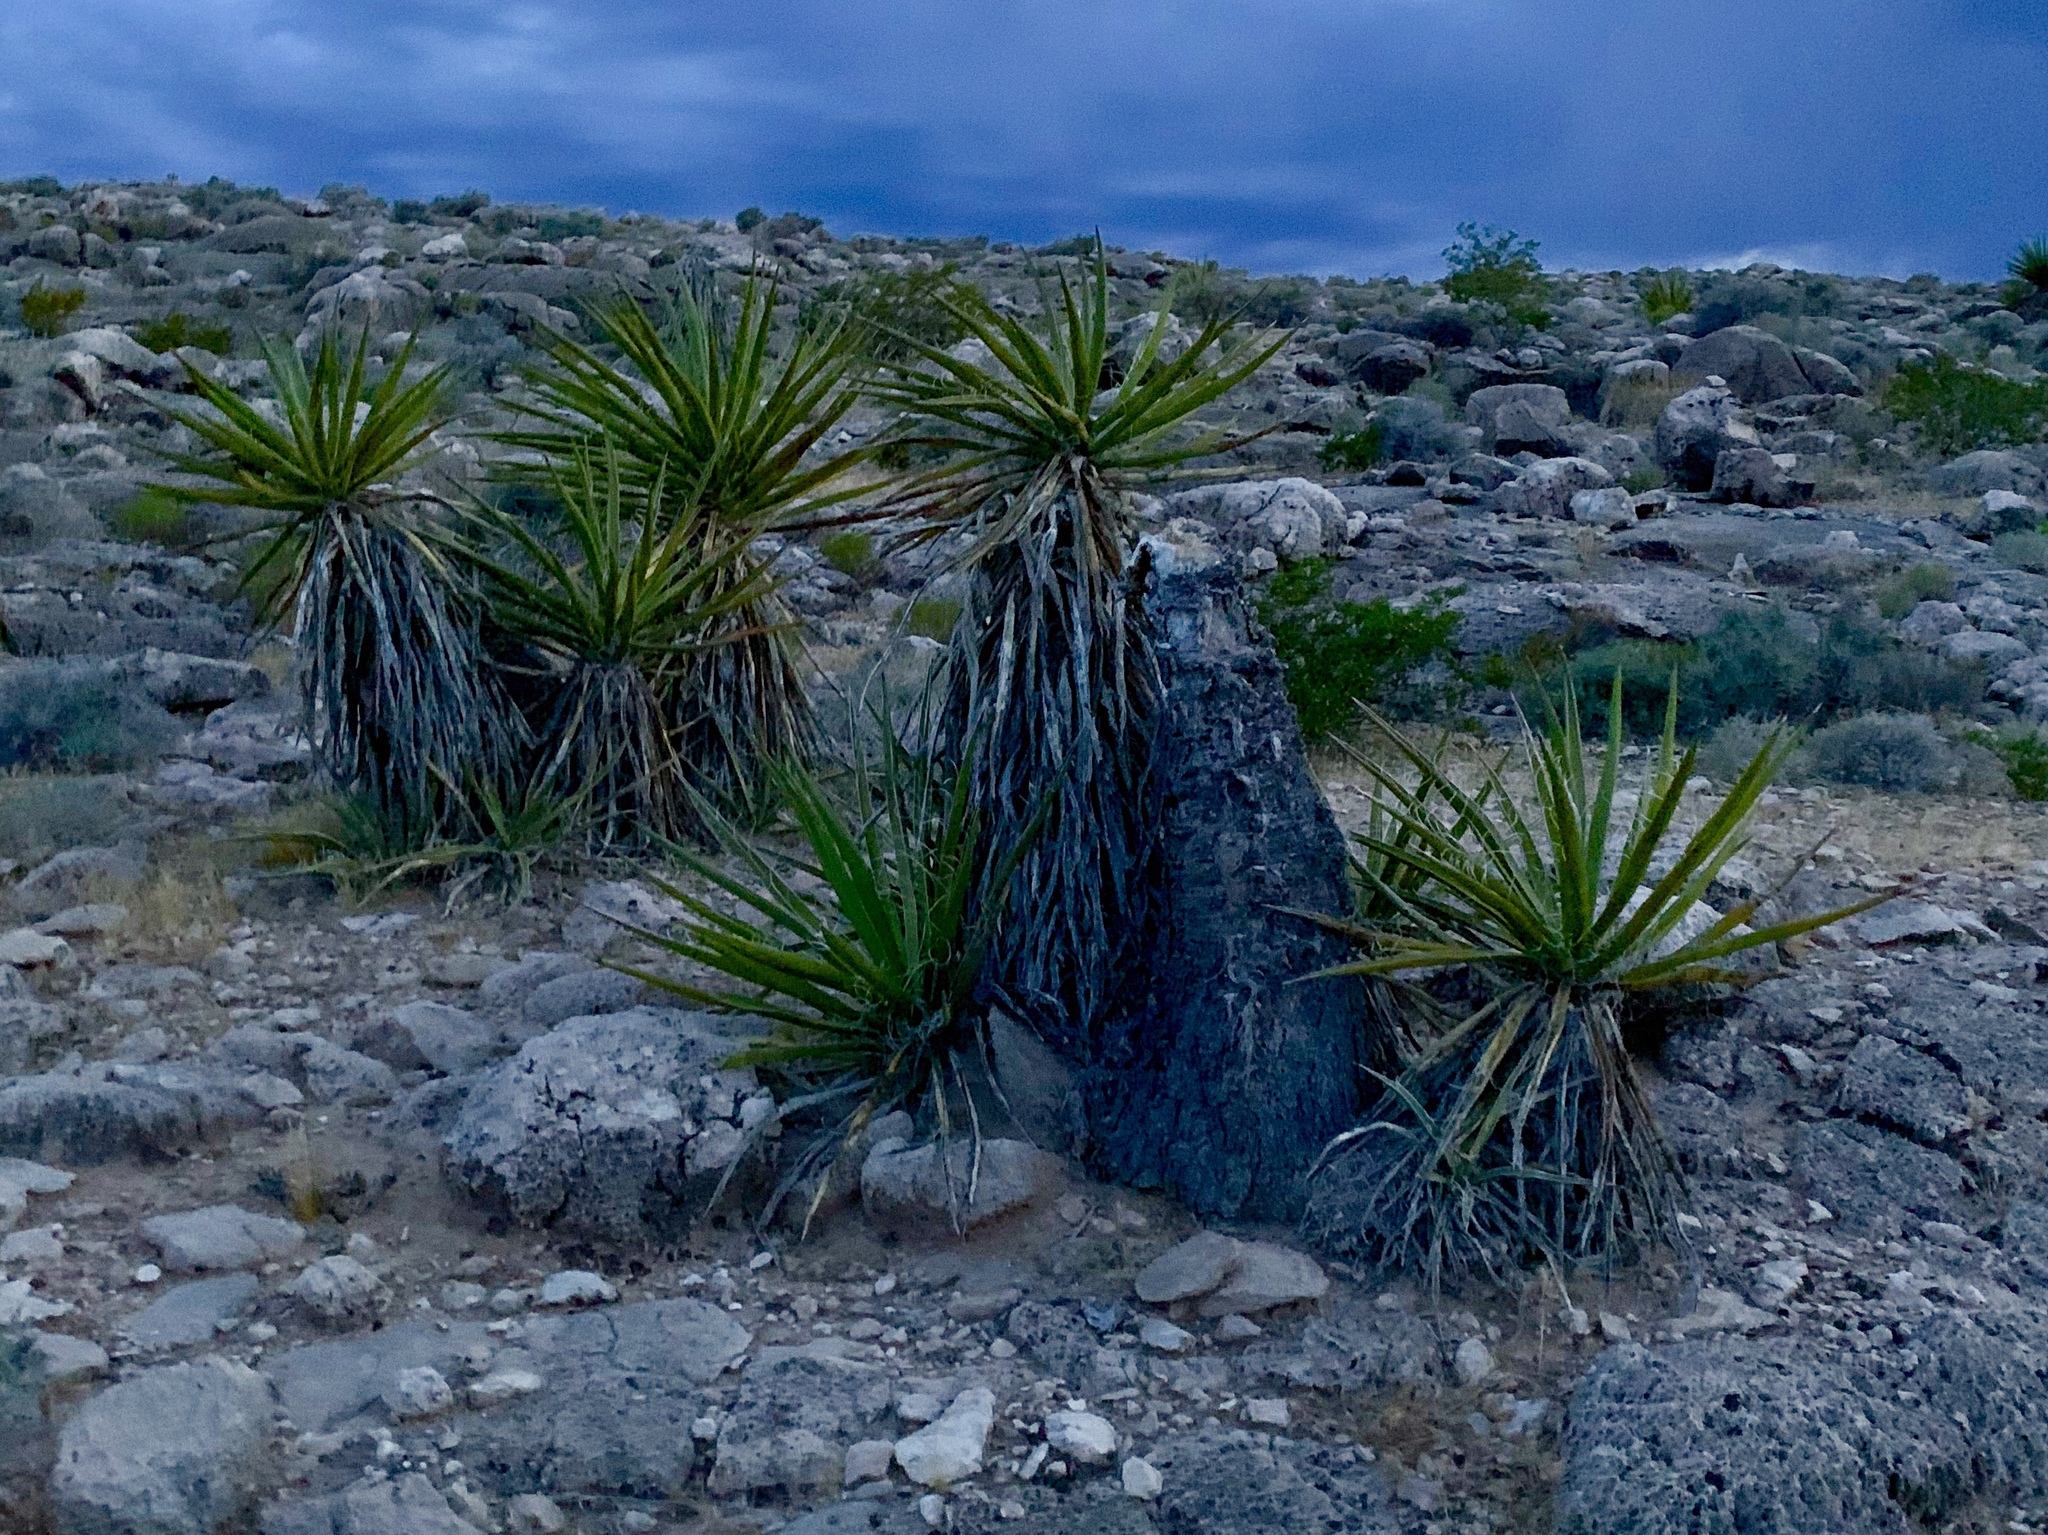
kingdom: Plantae
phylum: Tracheophyta
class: Liliopsida
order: Asparagales
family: Asparagaceae
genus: Yucca
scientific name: Yucca schidigera
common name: Mojave yucca
